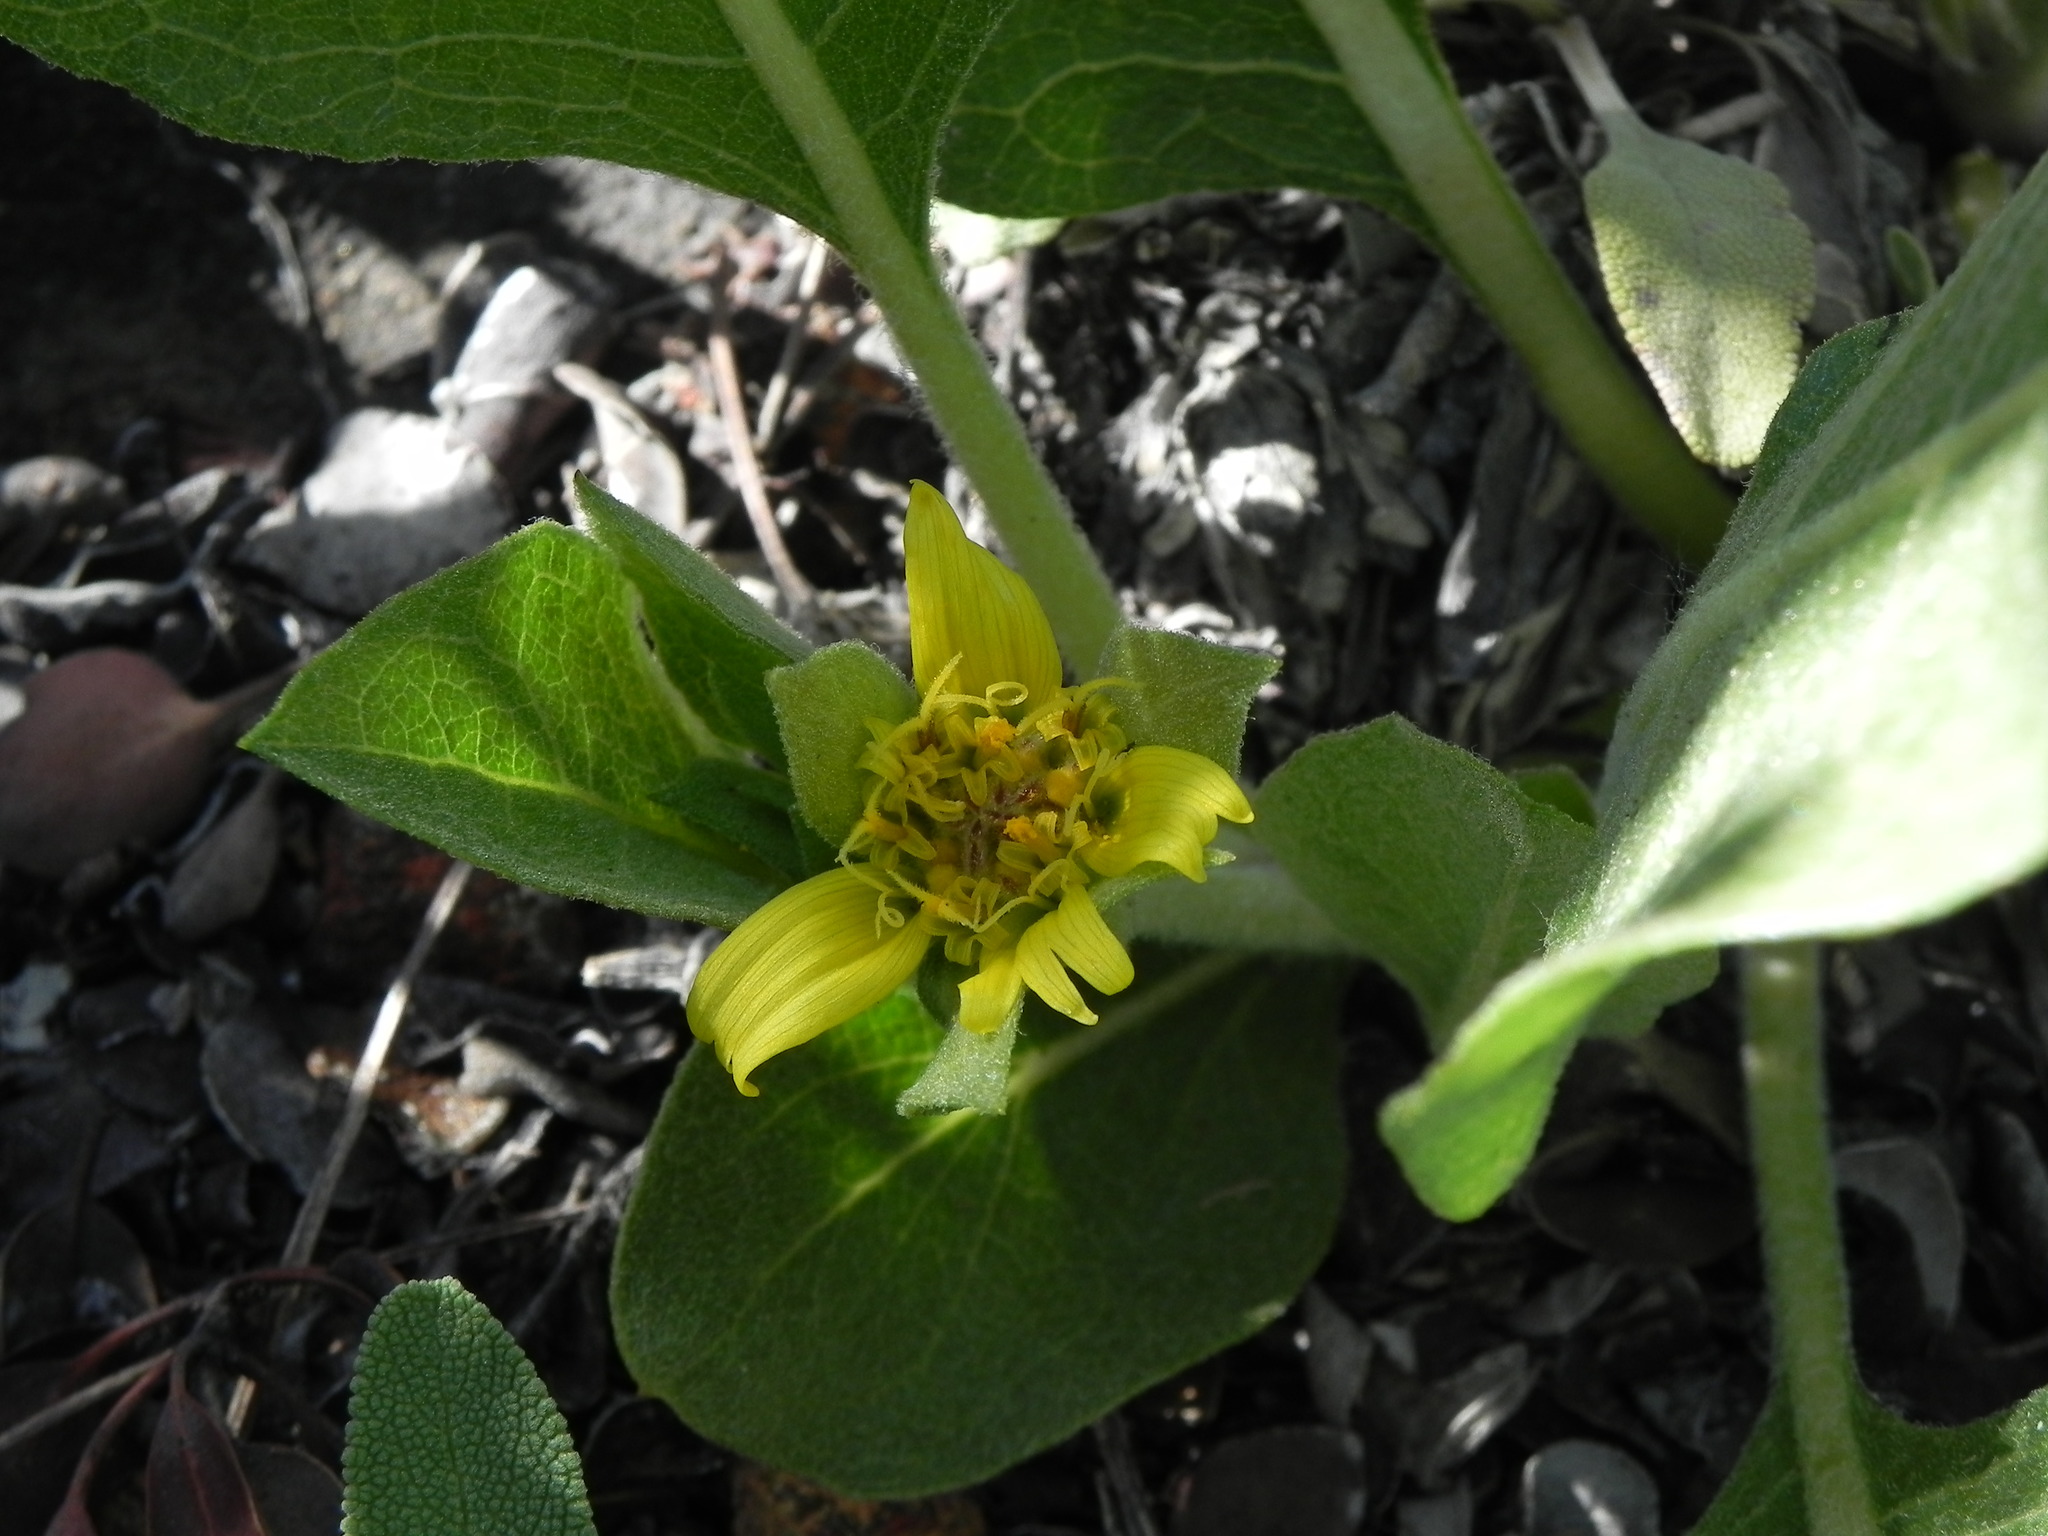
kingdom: Plantae
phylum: Tracheophyta
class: Magnoliopsida
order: Asterales
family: Asteraceae
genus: Agnorhiza
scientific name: Agnorhiza ovata
